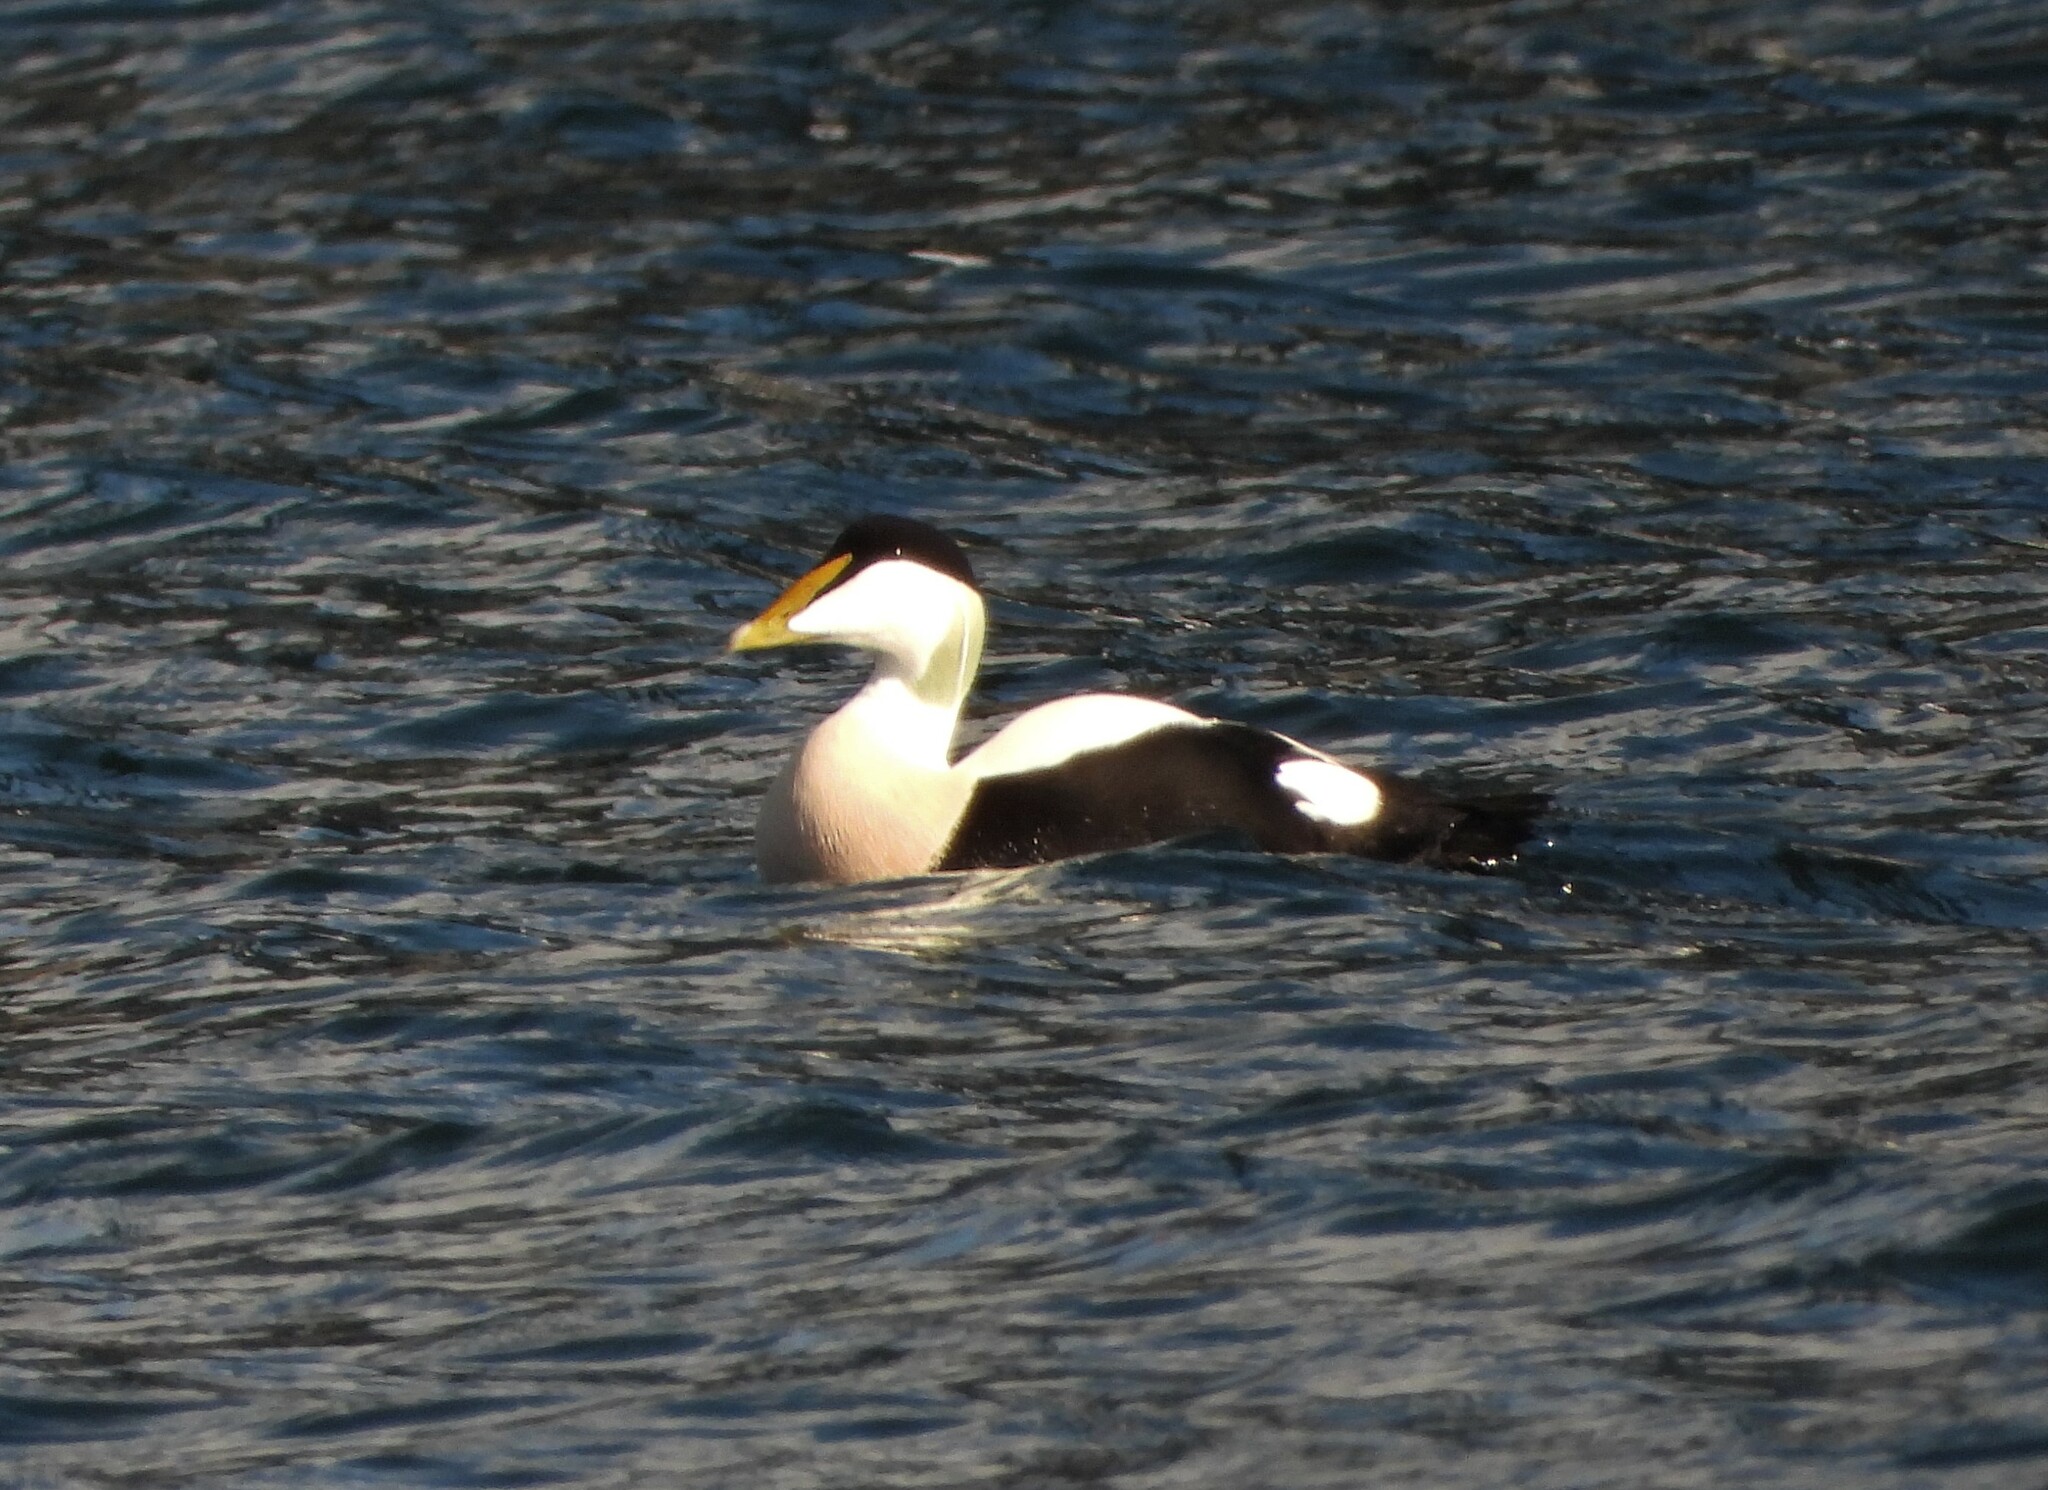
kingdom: Animalia
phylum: Chordata
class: Aves
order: Anseriformes
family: Anatidae
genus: Somateria
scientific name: Somateria mollissima
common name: Common eider
